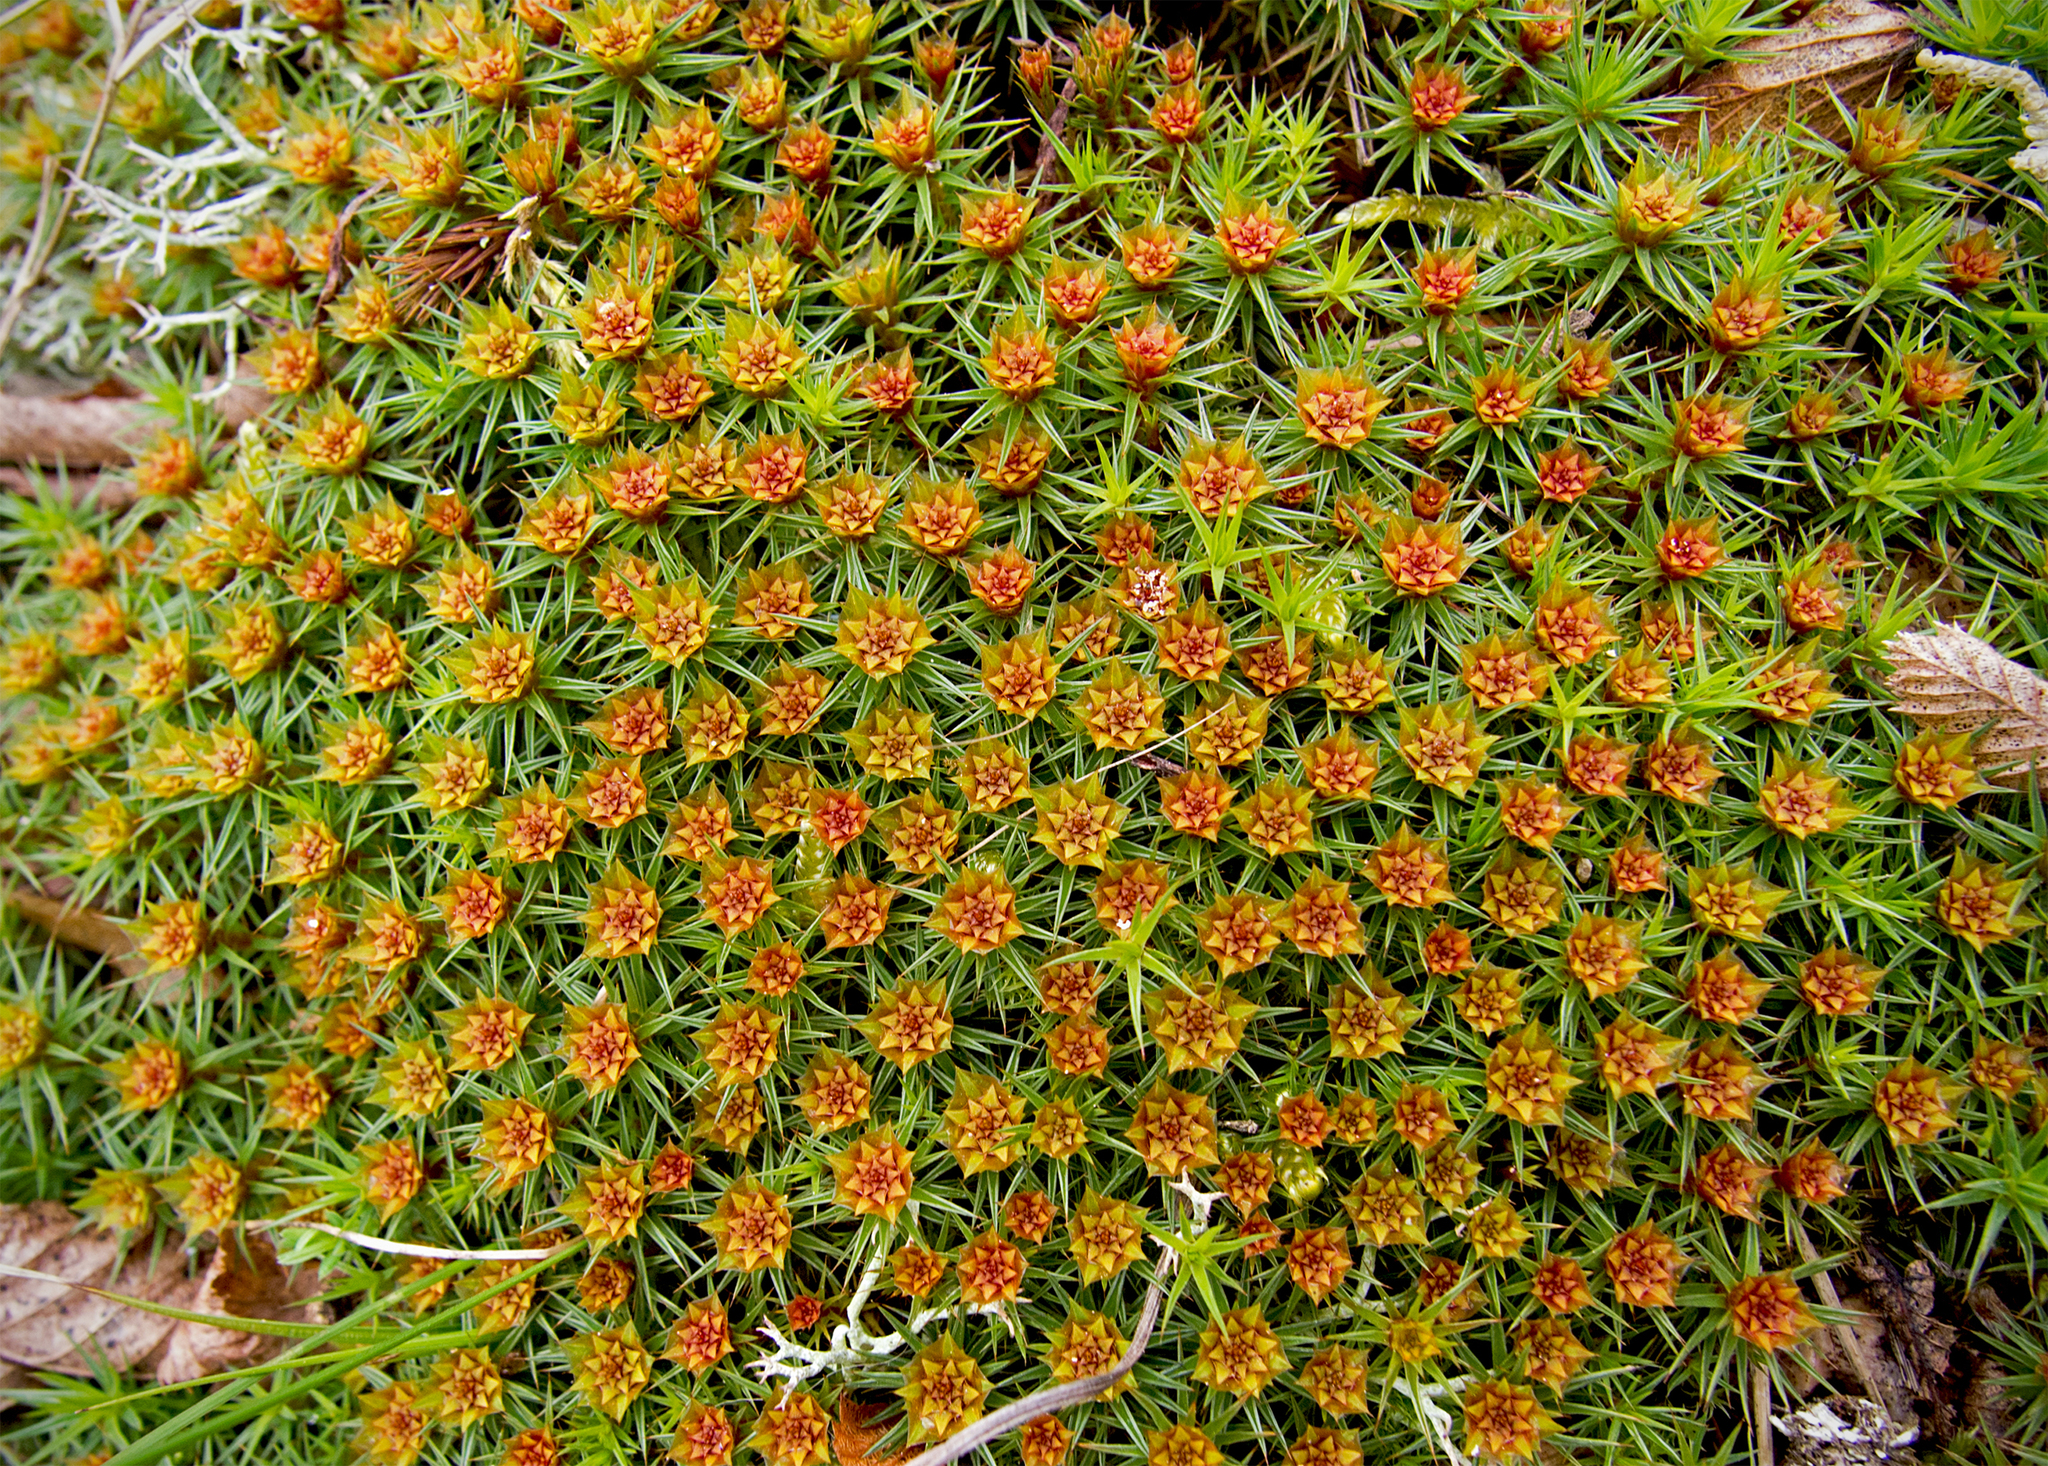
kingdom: Plantae
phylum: Bryophyta
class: Polytrichopsida
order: Polytrichales
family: Polytrichaceae
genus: Polytrichum
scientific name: Polytrichum juniperinum
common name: Juniper haircap moss
